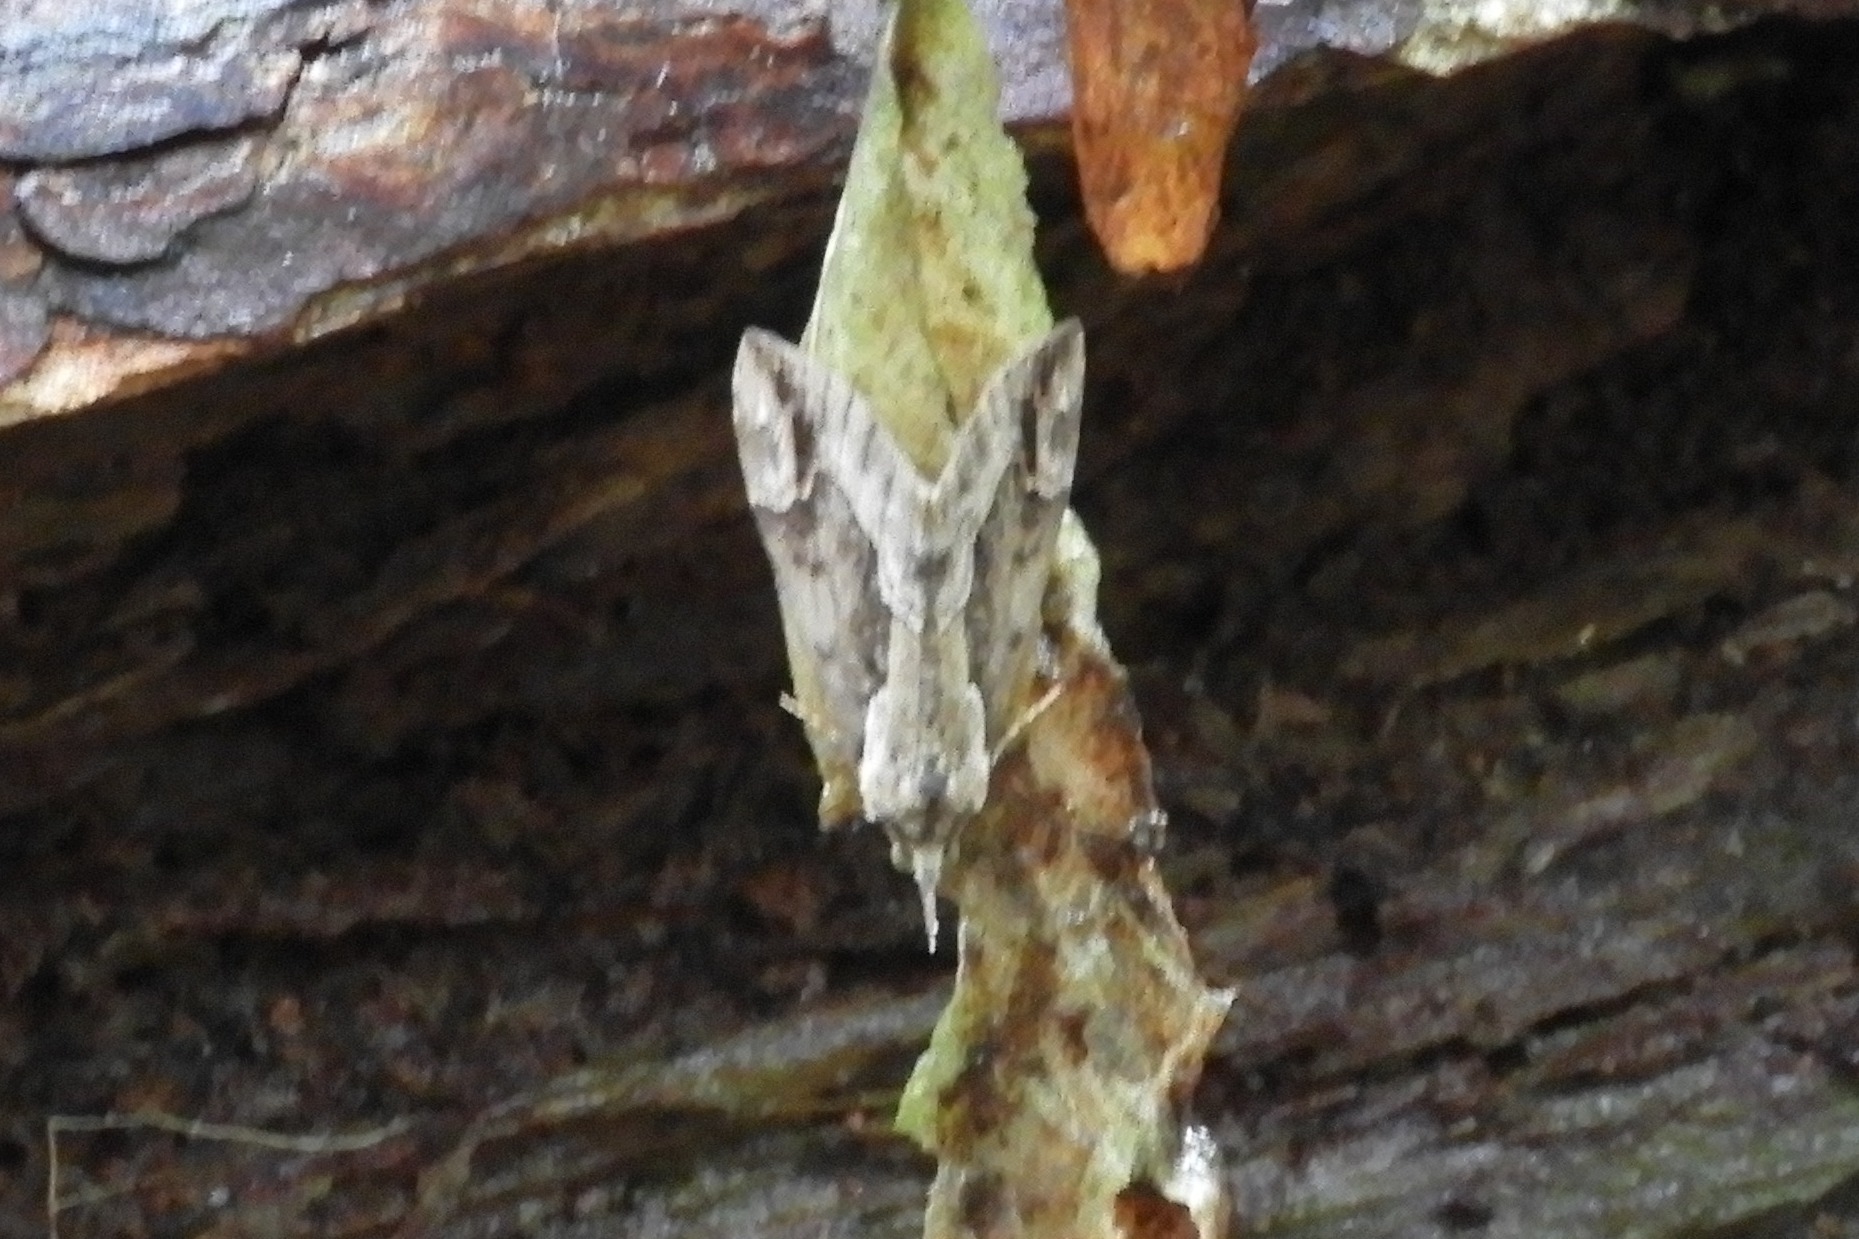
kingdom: Animalia
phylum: Arthropoda
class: Insecta
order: Lepidoptera
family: Erebidae
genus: Hypena
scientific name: Hypena baltimoralis
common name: Baltimore snout
